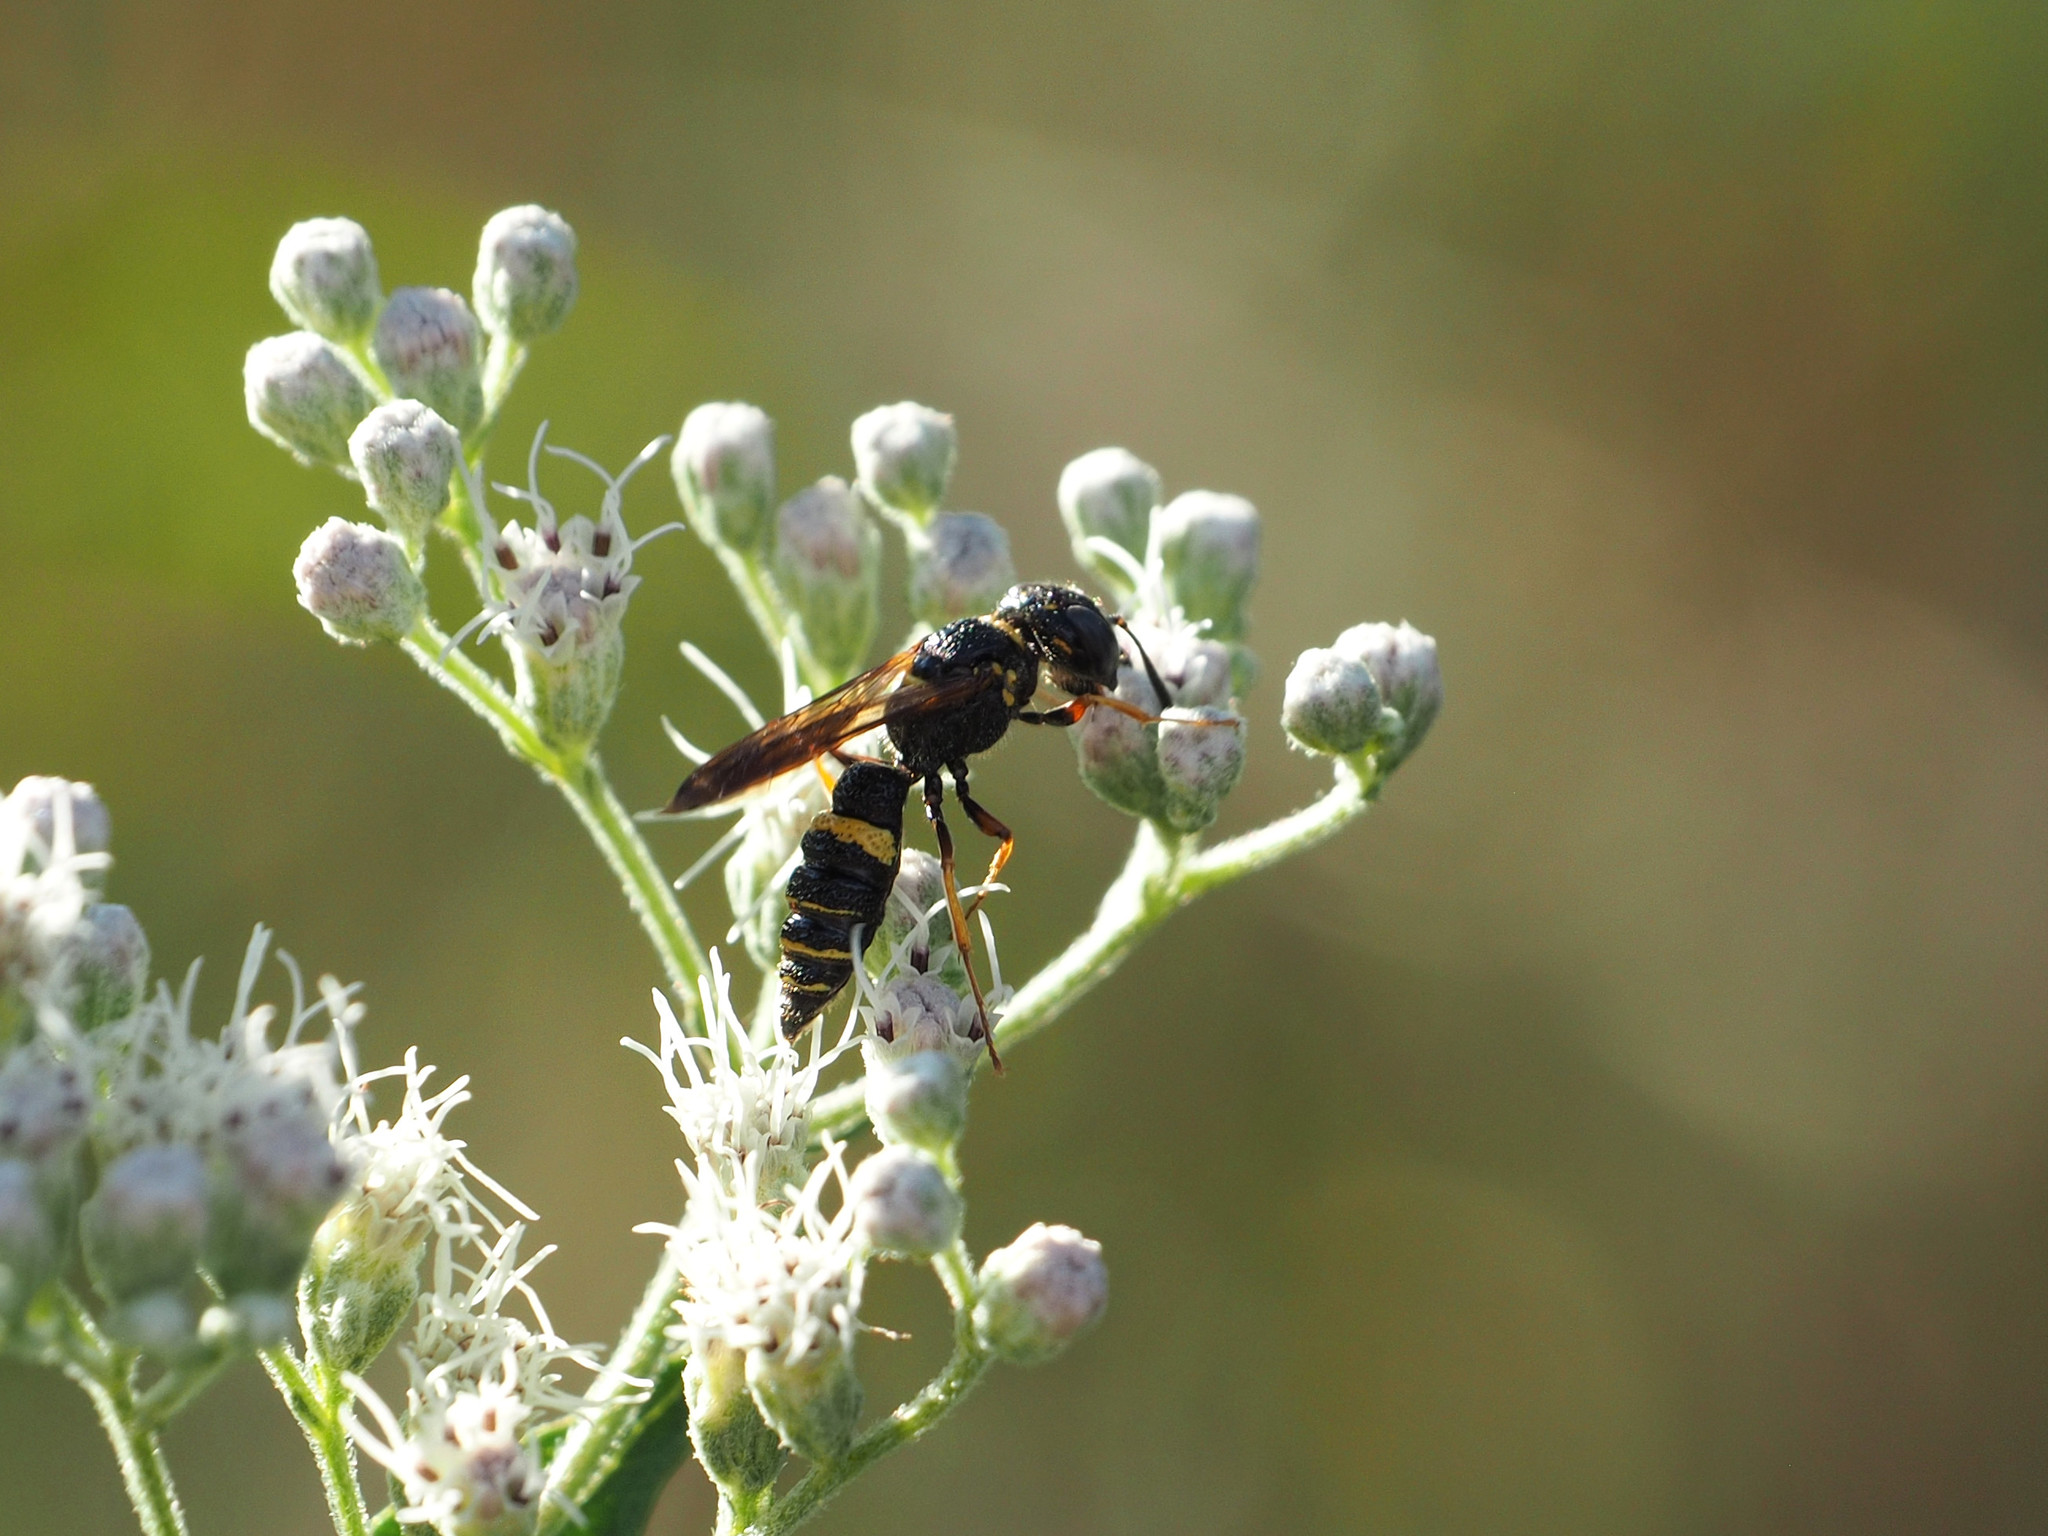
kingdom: Animalia
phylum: Arthropoda
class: Insecta
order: Hymenoptera
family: Crabronidae
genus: Philanthus
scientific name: Philanthus gibbosus
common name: Humped beewolf
